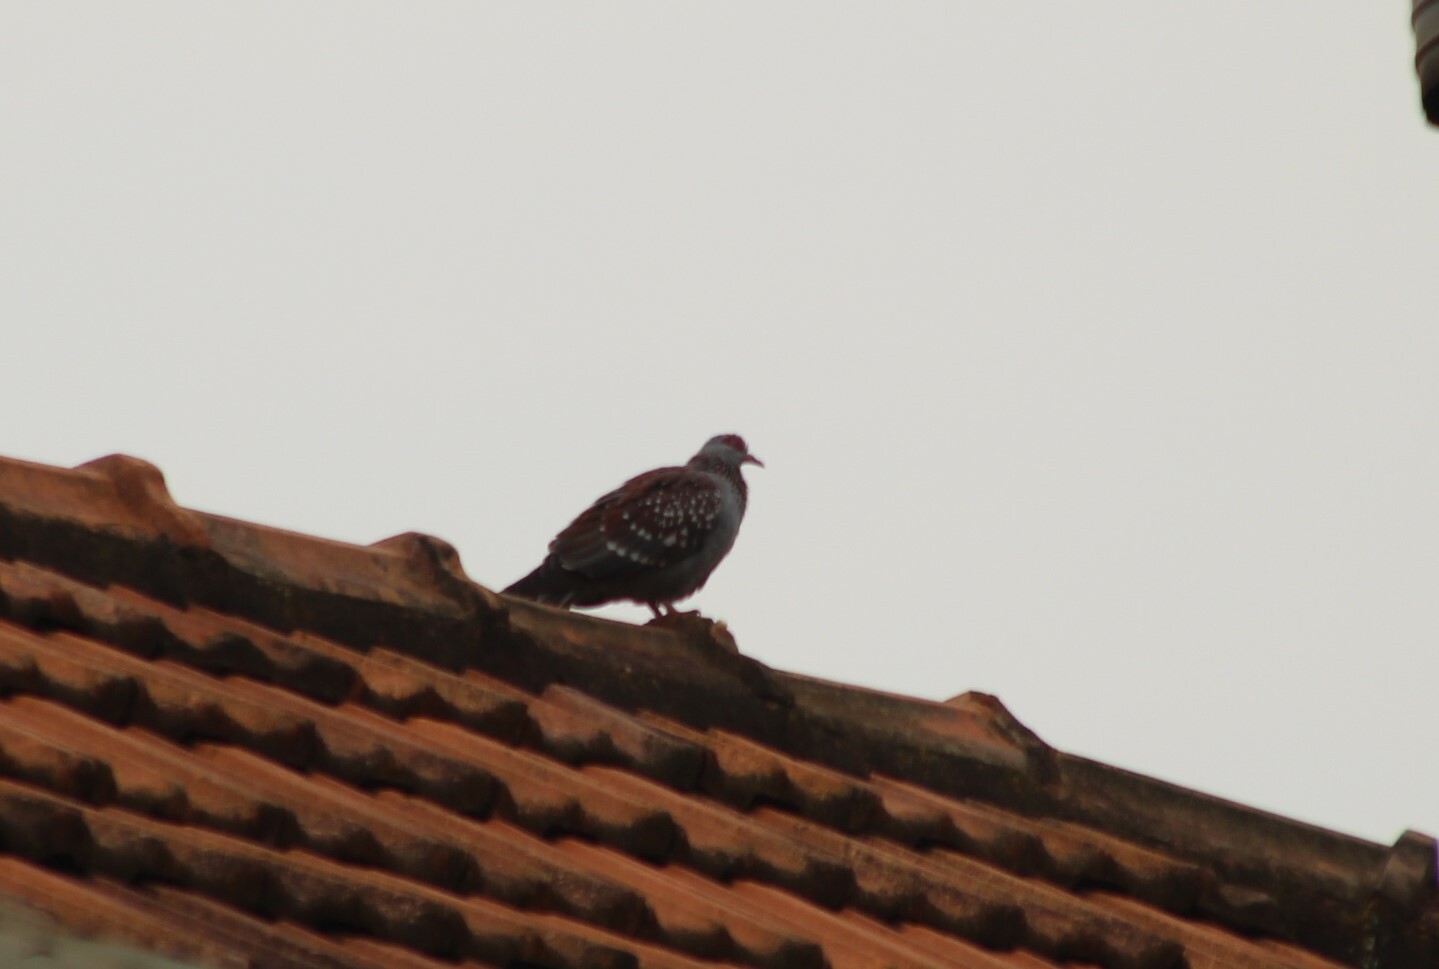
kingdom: Animalia
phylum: Chordata
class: Aves
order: Columbiformes
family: Columbidae
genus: Columba
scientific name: Columba guinea
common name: Speckled pigeon
